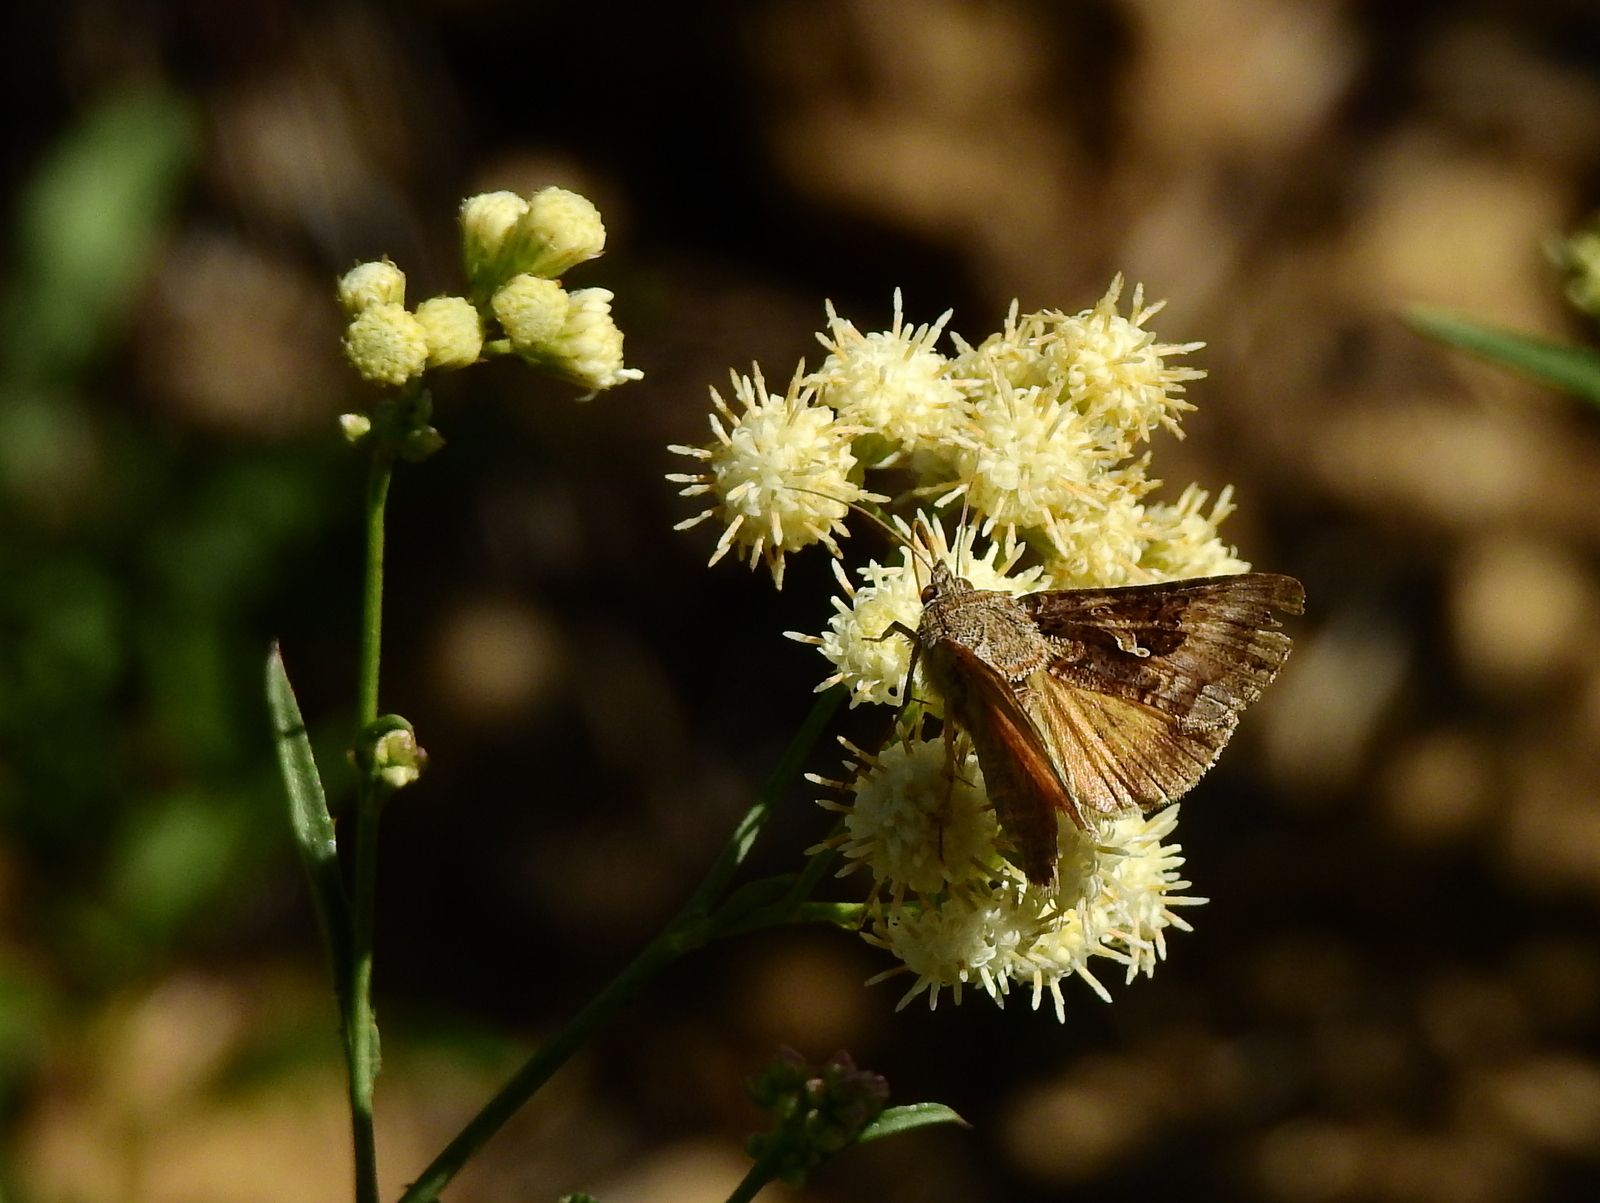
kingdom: Animalia
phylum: Arthropoda
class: Insecta
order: Lepidoptera
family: Noctuidae
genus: Rachiplusia
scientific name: Rachiplusia nu
